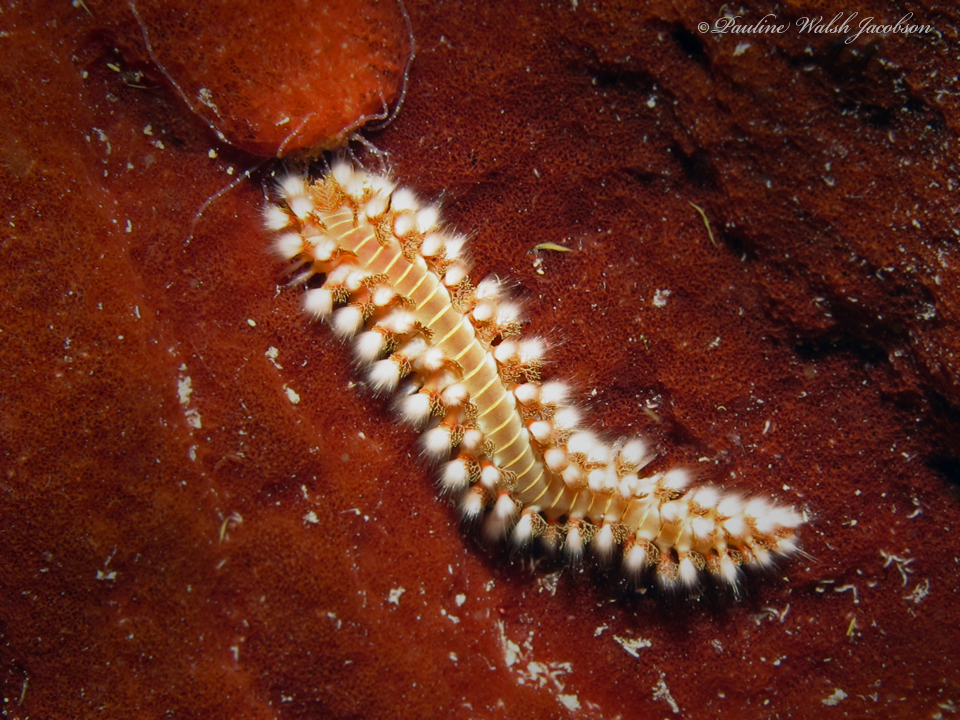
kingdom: Animalia
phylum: Annelida
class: Polychaeta
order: Amphinomida
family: Amphinomidae
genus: Hermodice
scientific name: Hermodice carunculata
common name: Bearded fireworm
